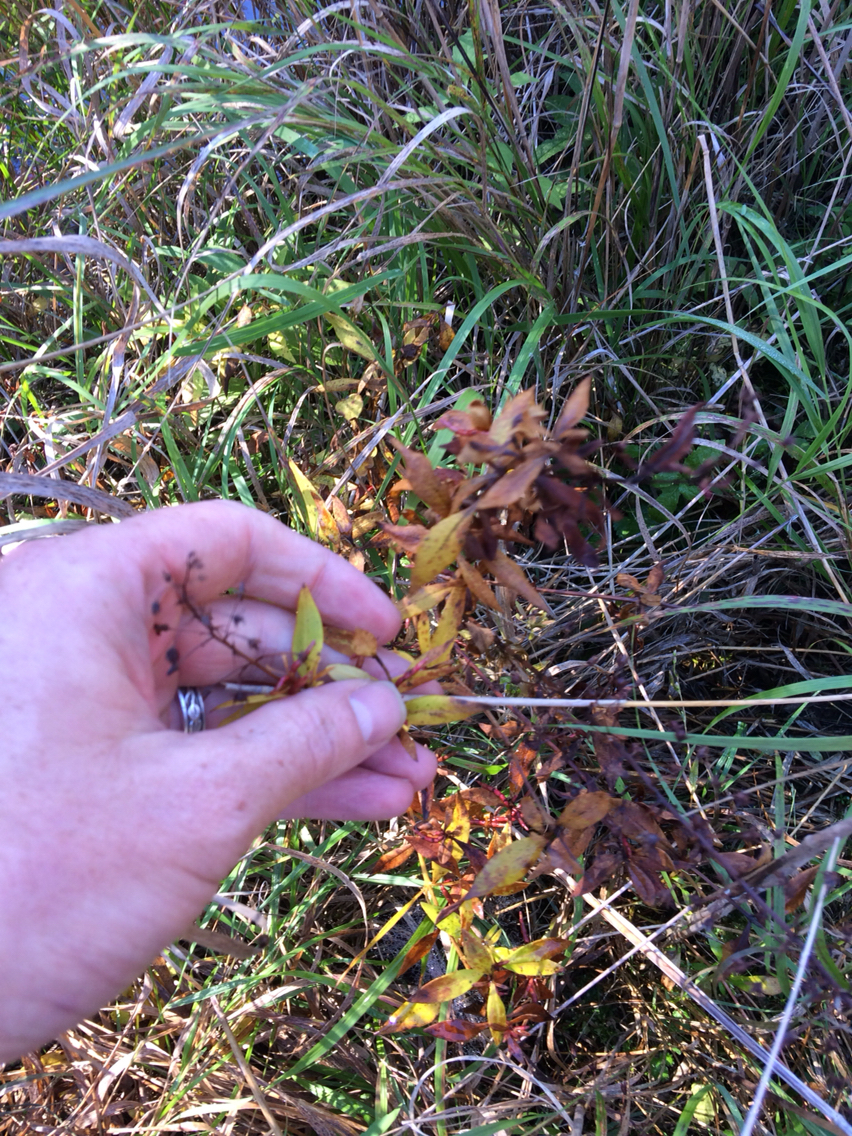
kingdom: Plantae
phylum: Tracheophyta
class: Magnoliopsida
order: Ericales
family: Primulaceae
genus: Lysimachia
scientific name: Lysimachia terrestris
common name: Lake loosestrife
